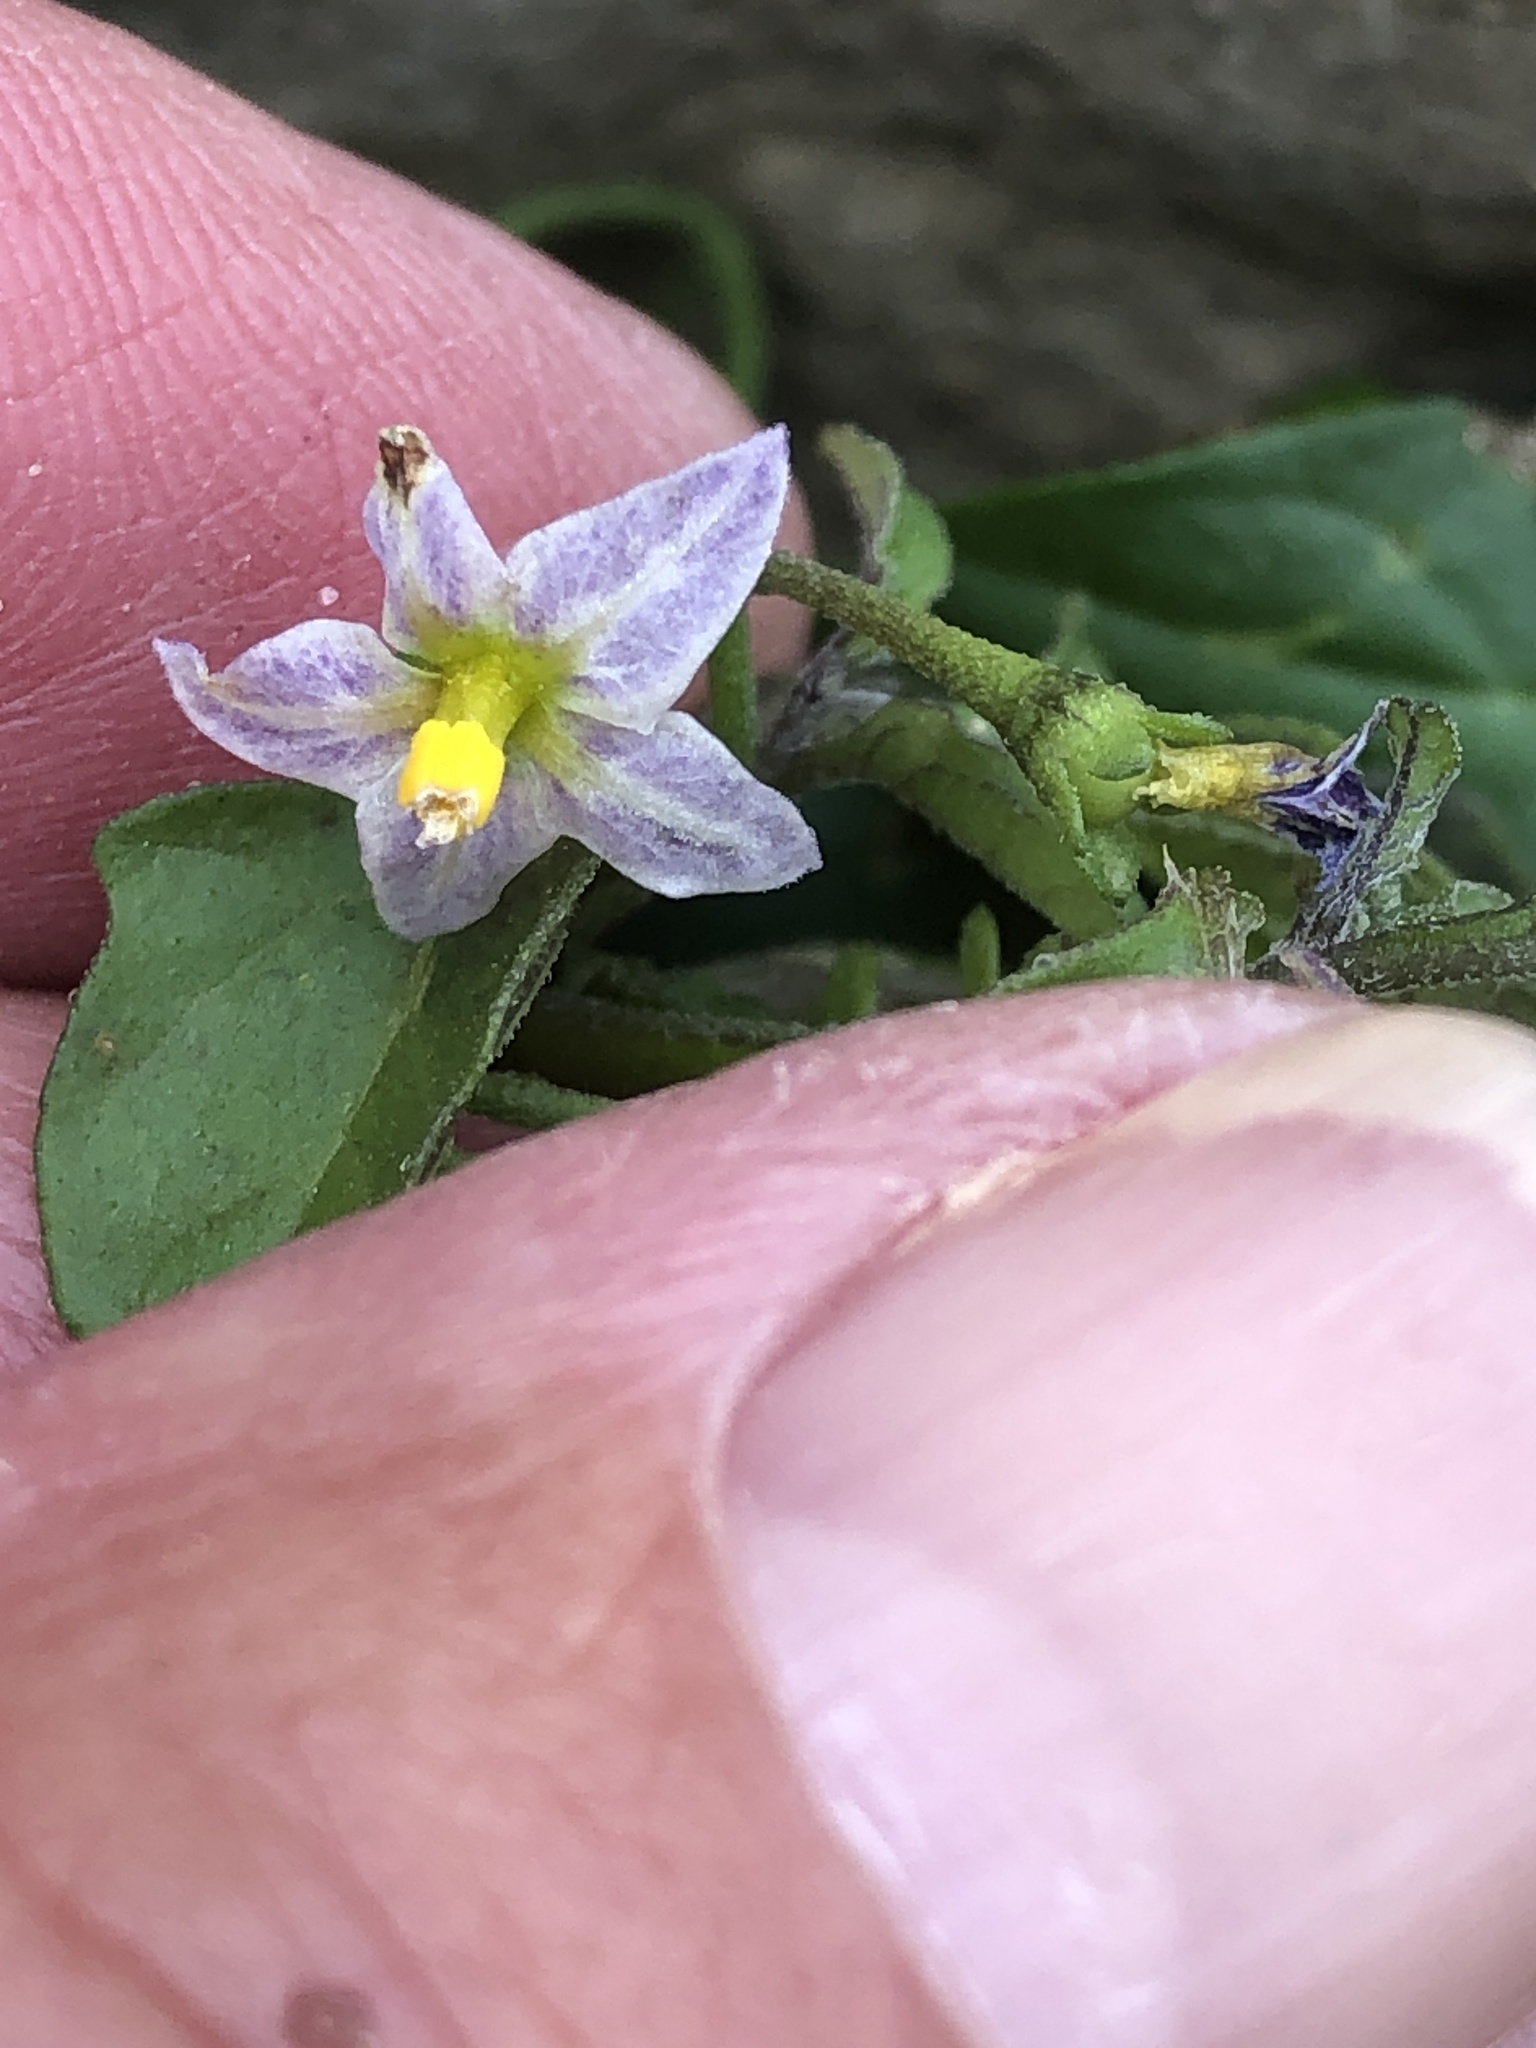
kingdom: Plantae
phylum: Tracheophyta
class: Magnoliopsida
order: Solanales
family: Solanaceae
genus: Solanum
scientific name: Solanum emulans
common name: Eastern black nightshade
